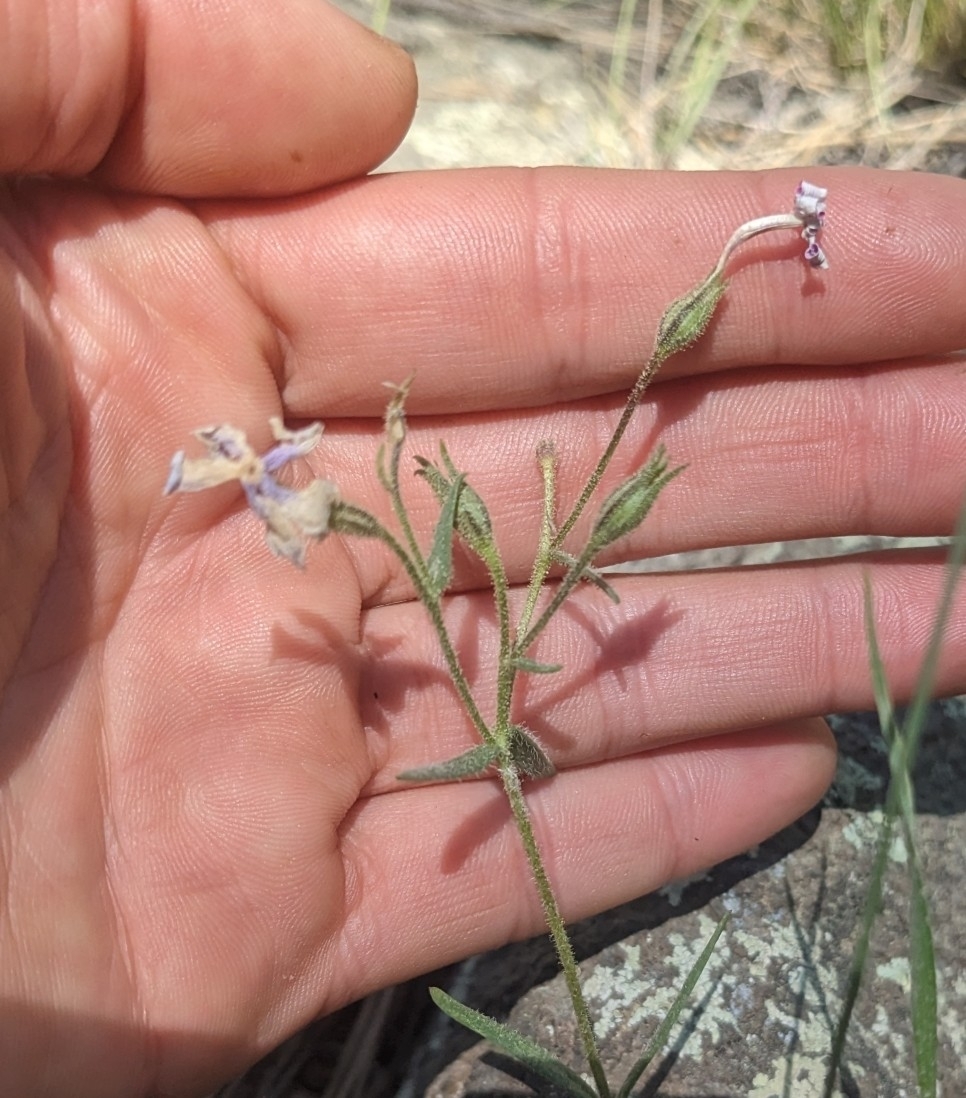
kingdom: Plantae
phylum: Tracheophyta
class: Magnoliopsida
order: Ericales
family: Polemoniaceae
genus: Phlox
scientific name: Phlox woodhousei
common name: Star phlox
